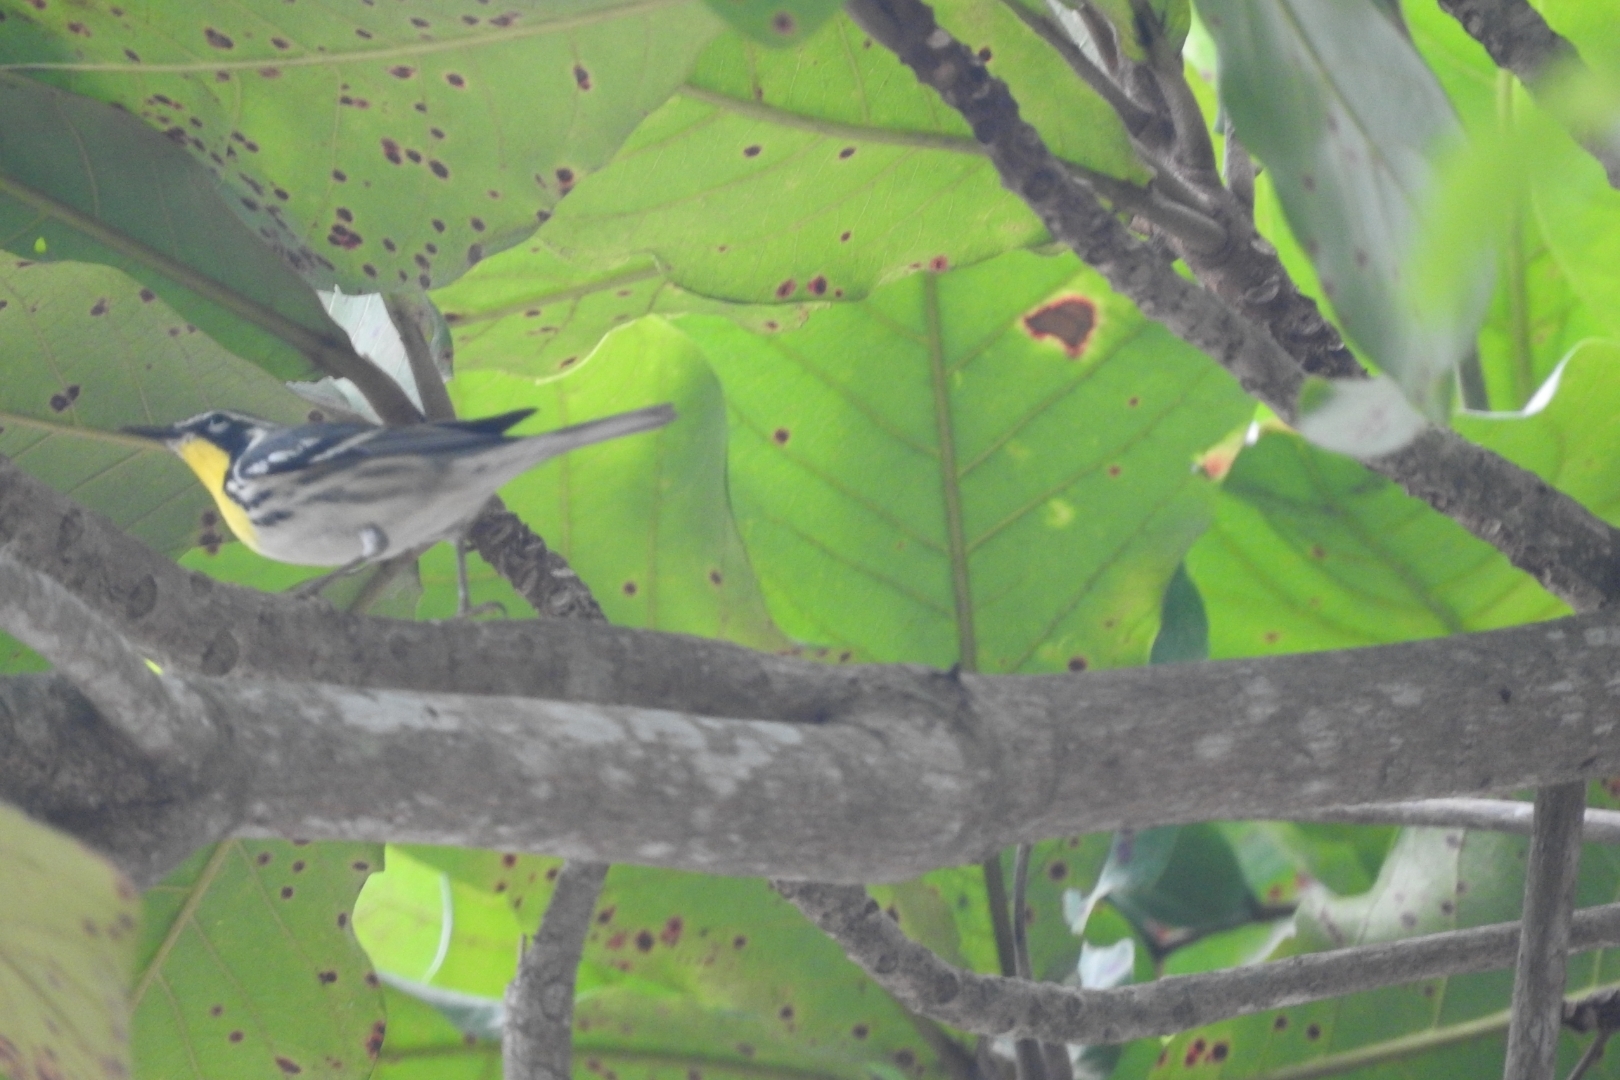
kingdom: Animalia
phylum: Chordata
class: Aves
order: Passeriformes
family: Parulidae
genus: Setophaga
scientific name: Setophaga dominica
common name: Yellow-throated warbler
